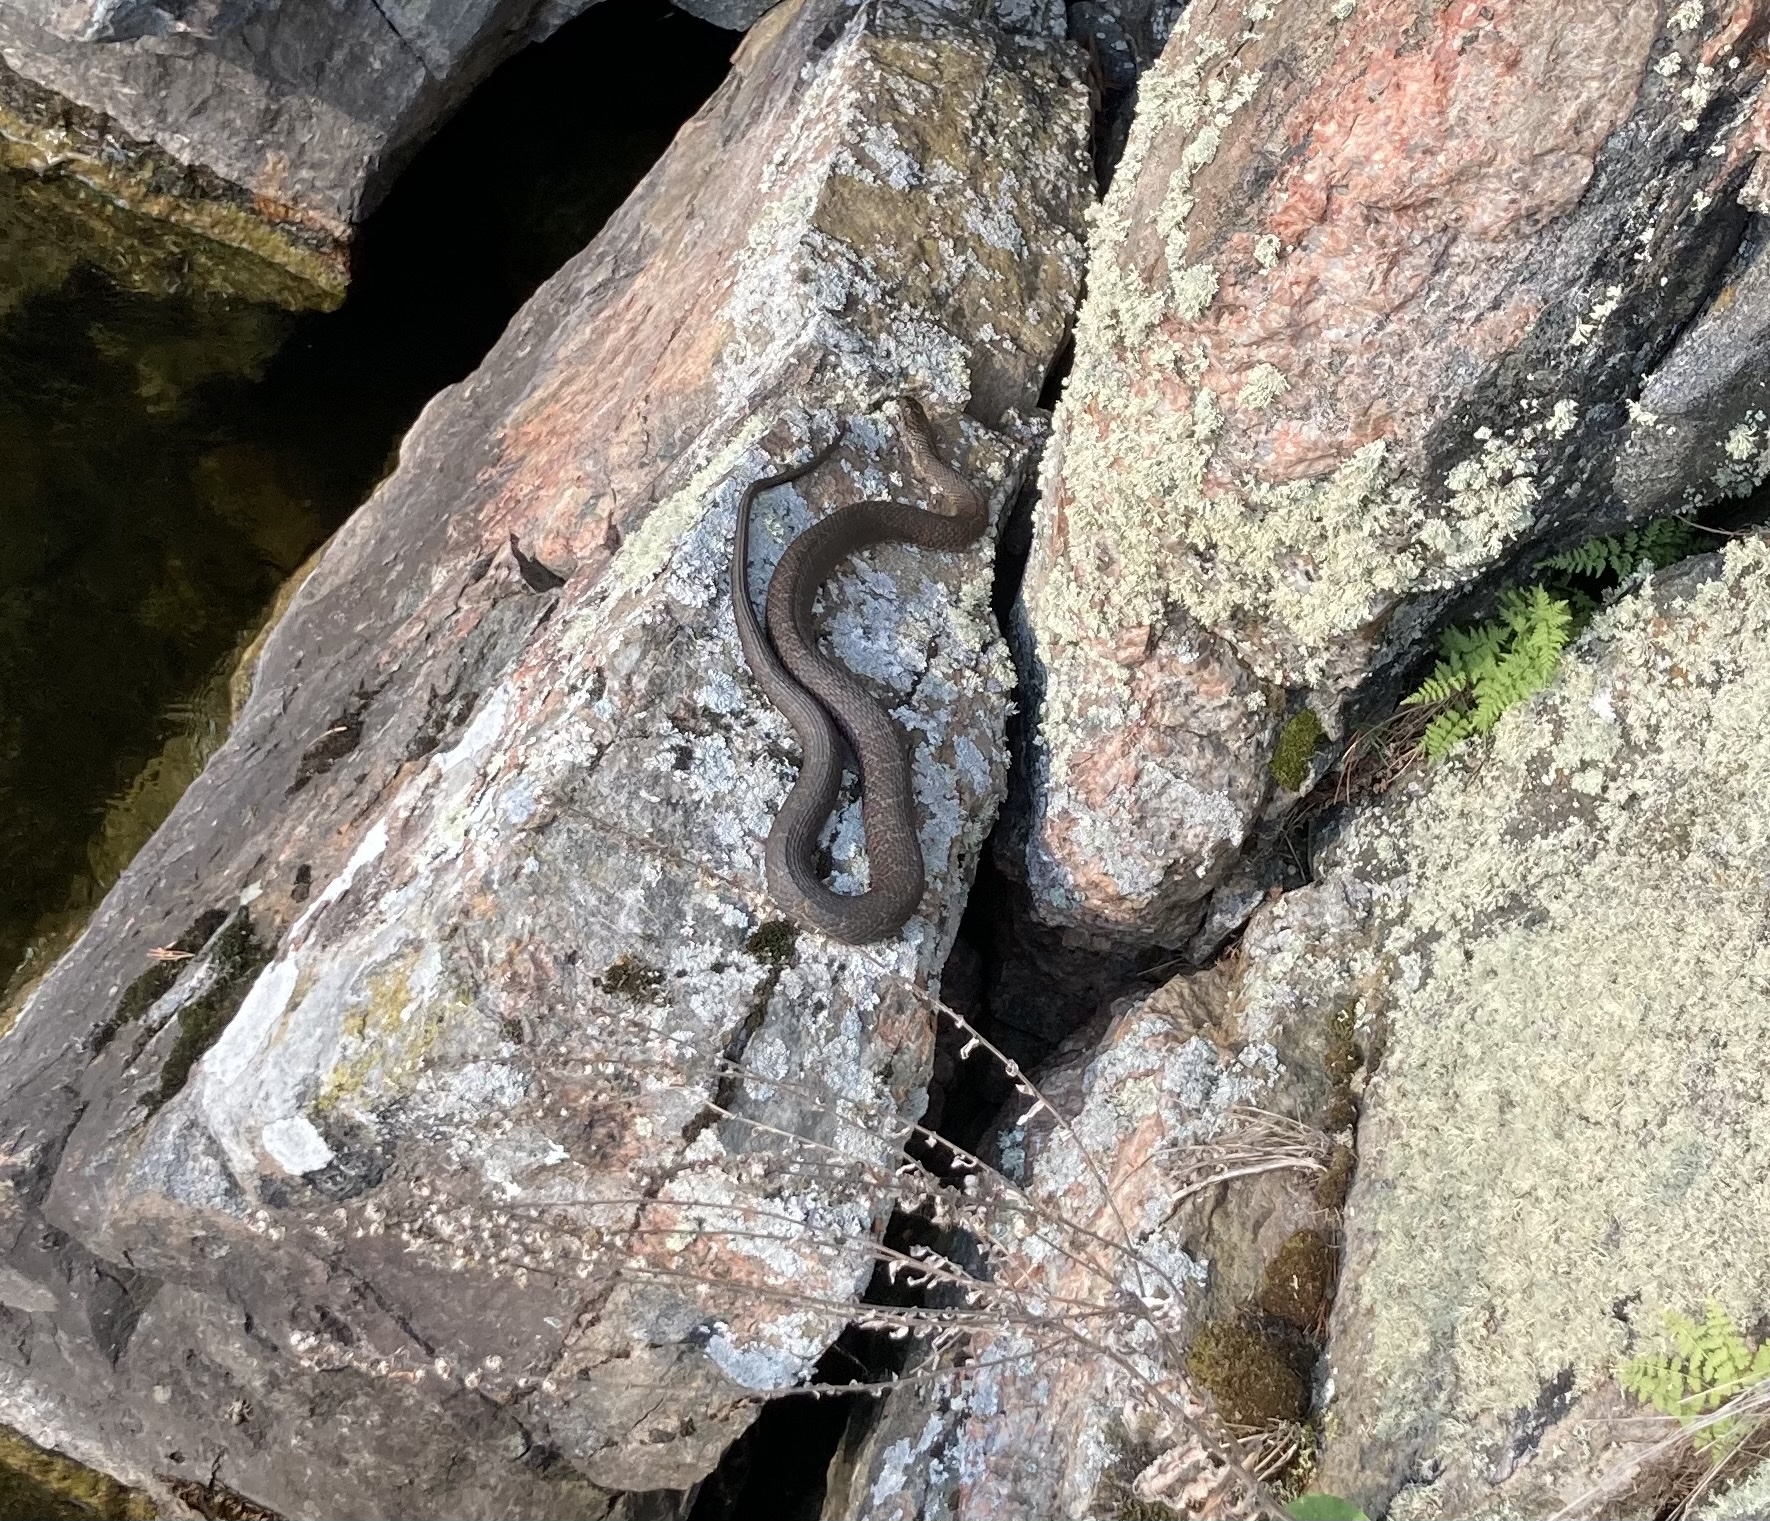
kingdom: Animalia
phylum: Chordata
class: Squamata
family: Colubridae
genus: Nerodia
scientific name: Nerodia sipedon
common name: Northern water snake
